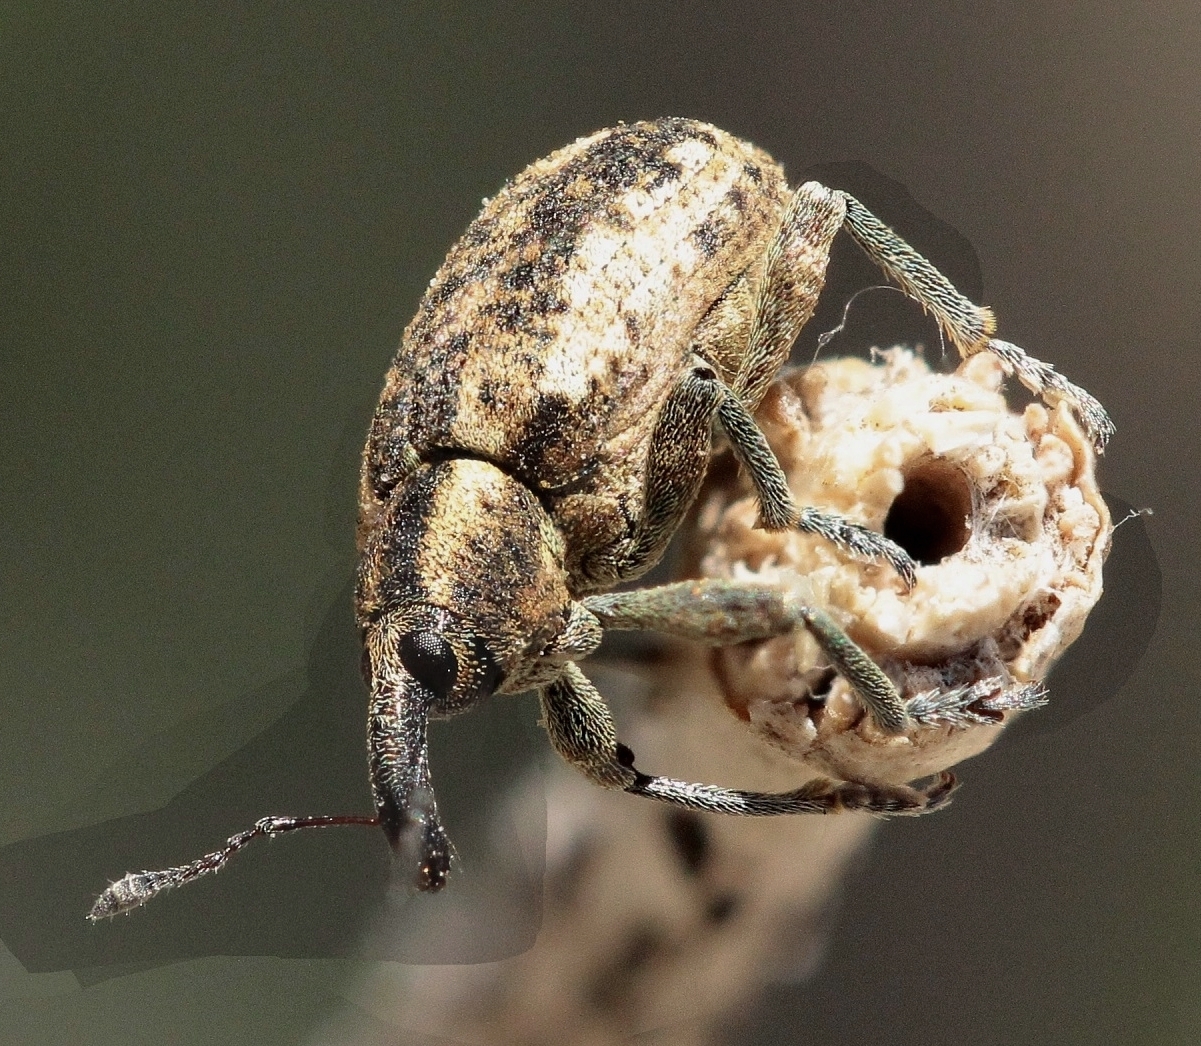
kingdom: Animalia
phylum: Arthropoda
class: Insecta
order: Coleoptera
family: Curculionidae
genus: Hypera
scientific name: Hypera conmaculata
